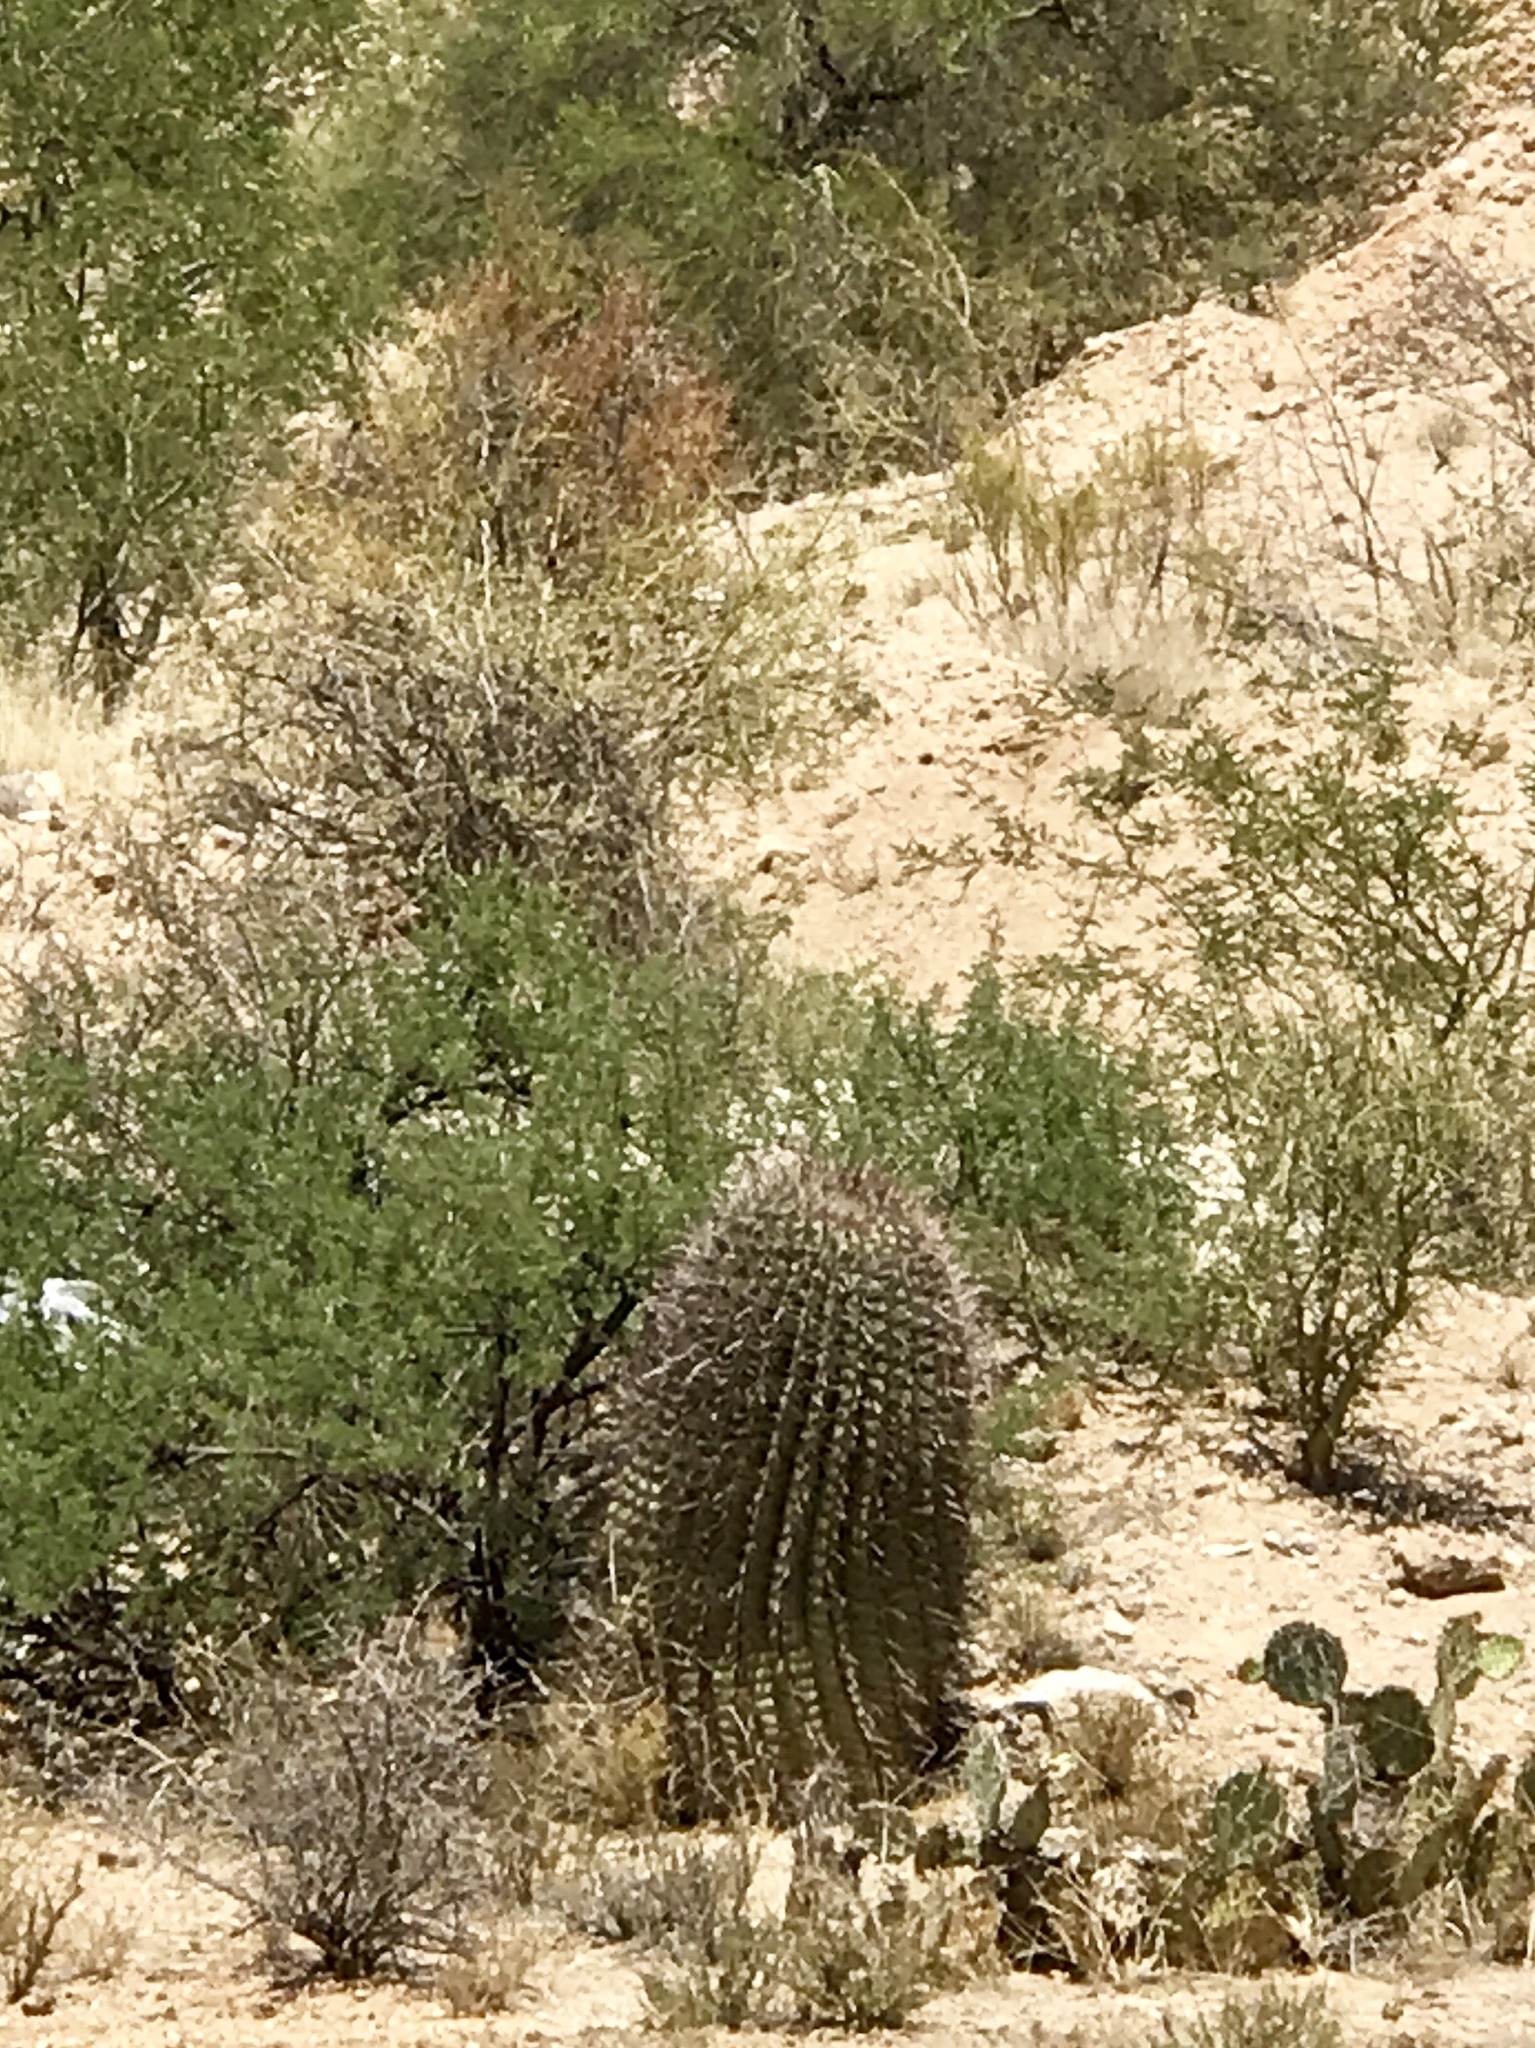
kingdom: Plantae
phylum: Tracheophyta
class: Magnoliopsida
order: Caryophyllales
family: Cactaceae
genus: Ferocactus
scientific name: Ferocactus wislizeni
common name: Candy barrel cactus
